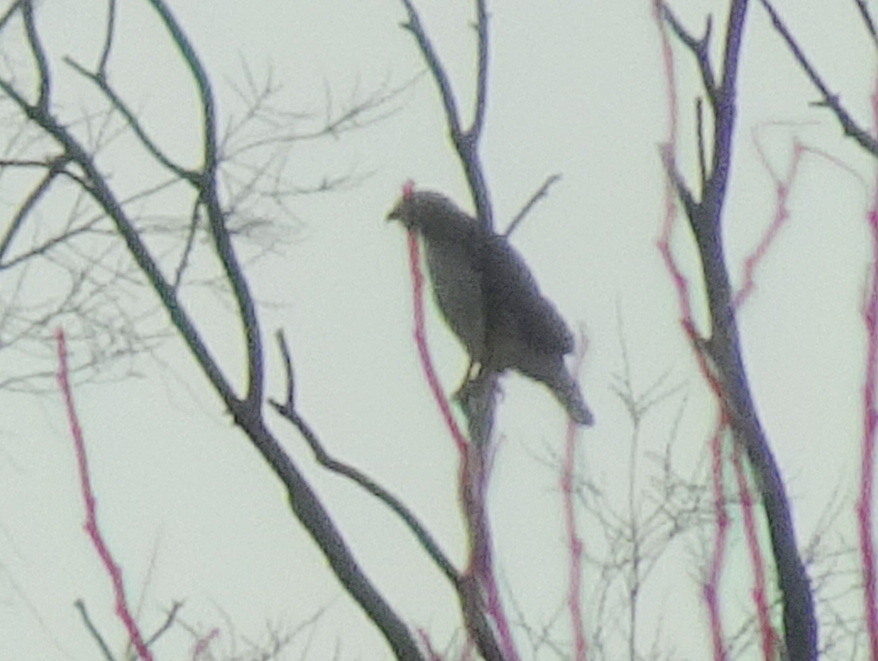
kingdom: Animalia
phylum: Chordata
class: Aves
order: Accipitriformes
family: Accipitridae
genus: Buteo
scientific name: Buteo jamaicensis
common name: Red-tailed hawk
